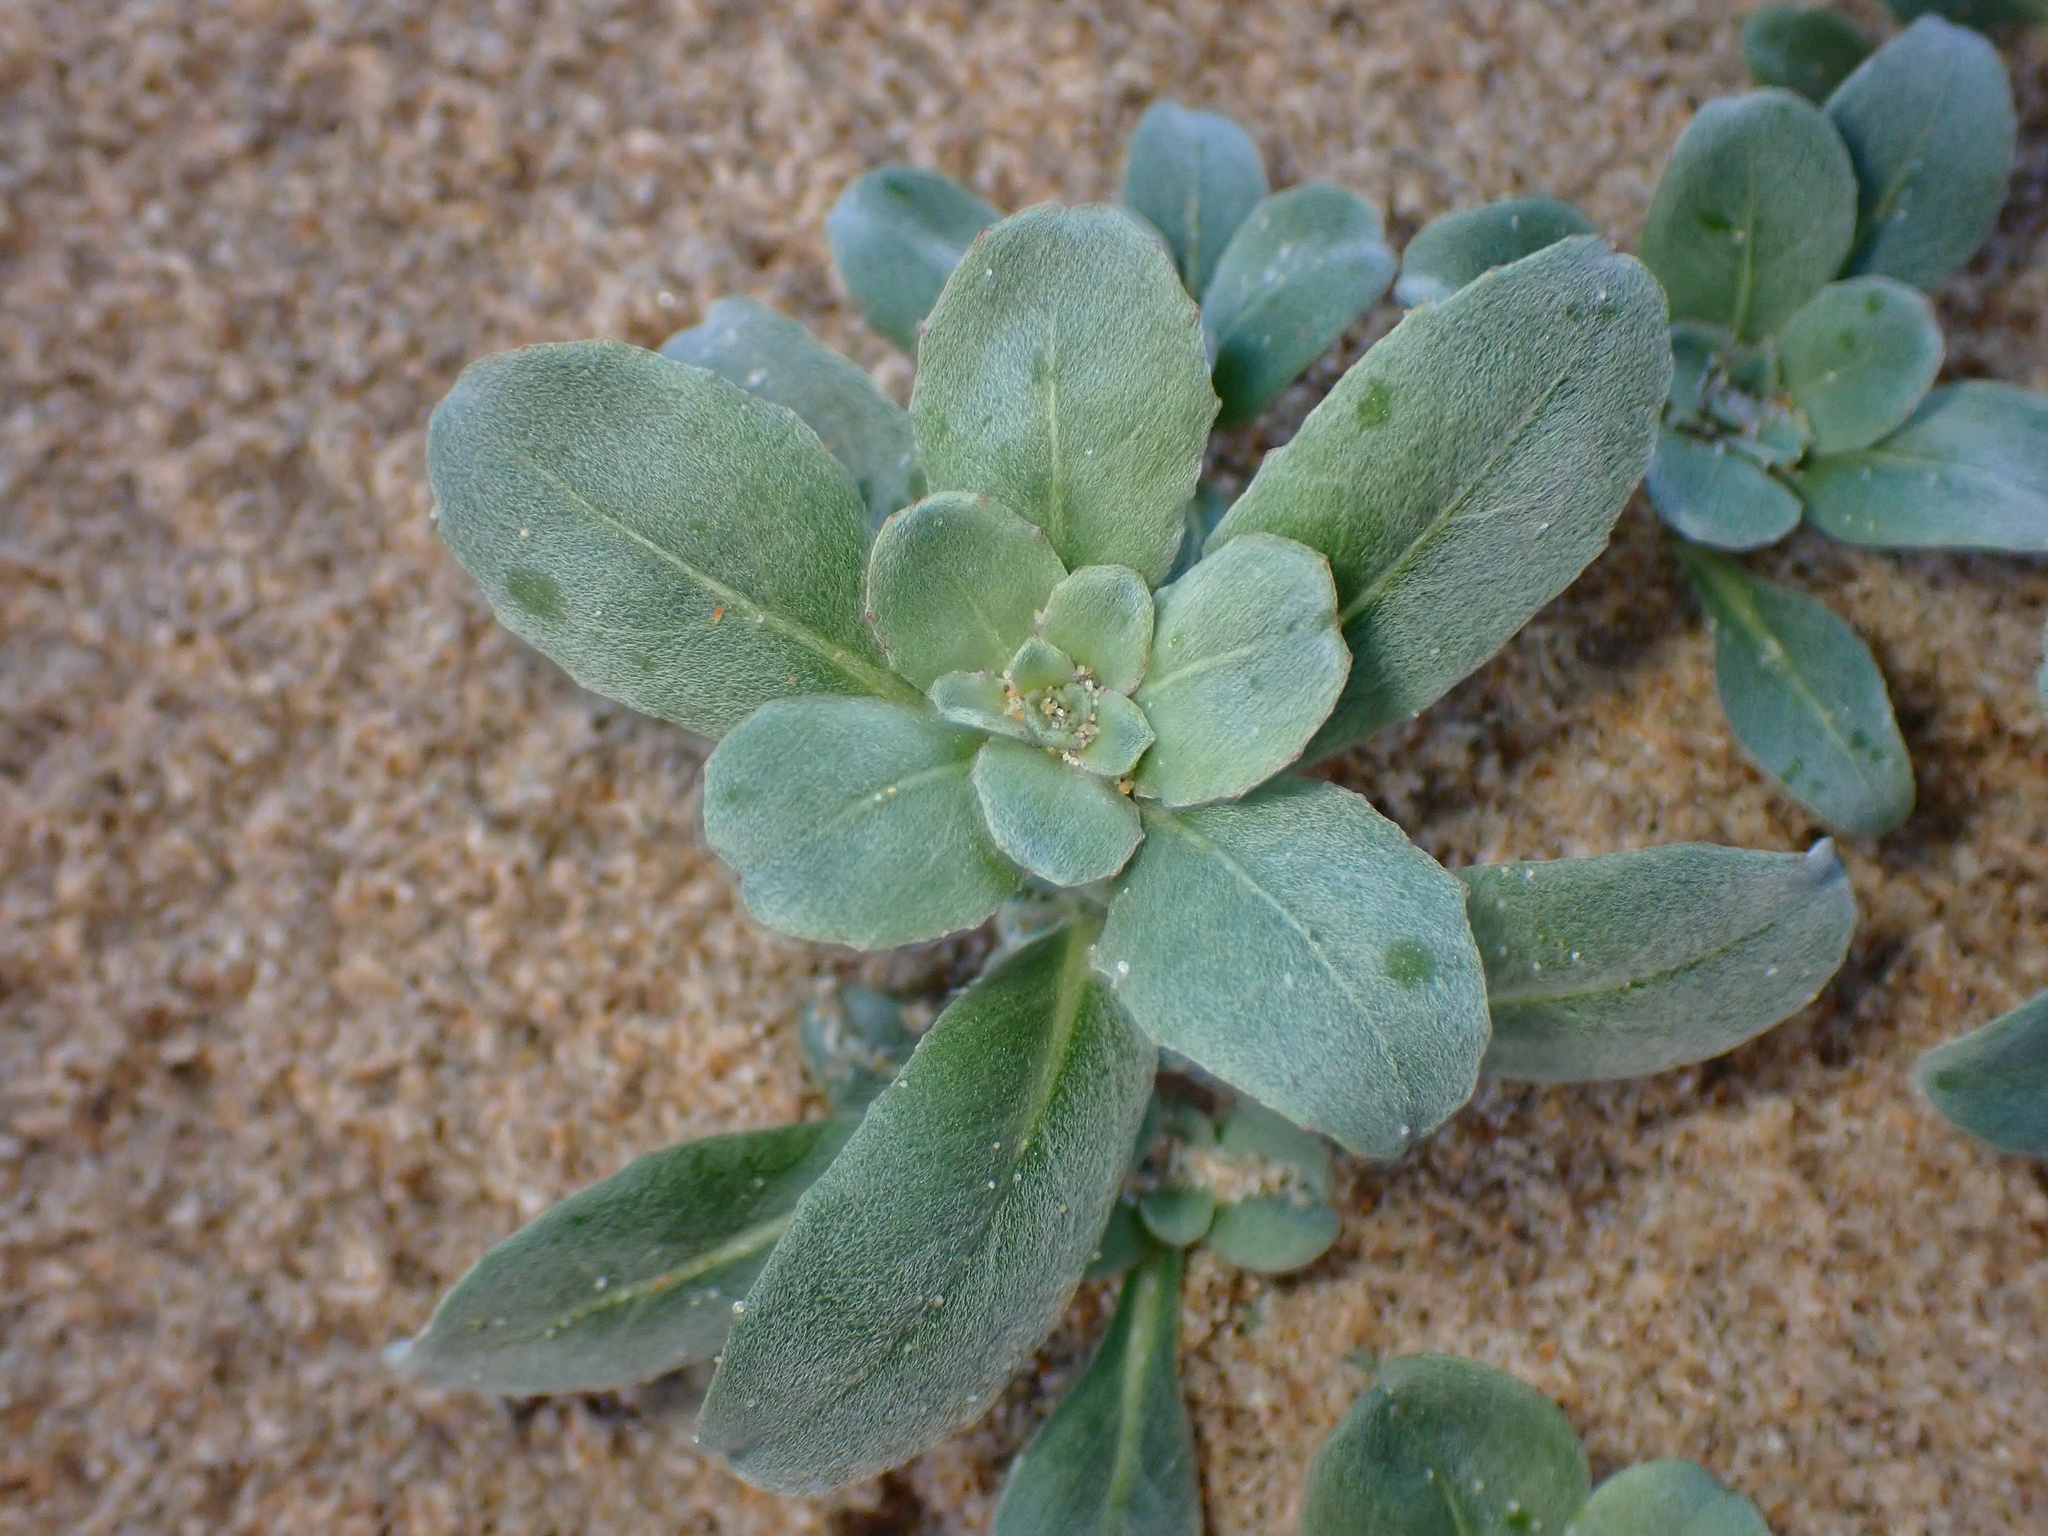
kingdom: Plantae
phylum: Tracheophyta
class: Magnoliopsida
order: Myrtales
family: Onagraceae
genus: Camissoniopsis
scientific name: Camissoniopsis cheiranthifolia
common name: Beach suncup
